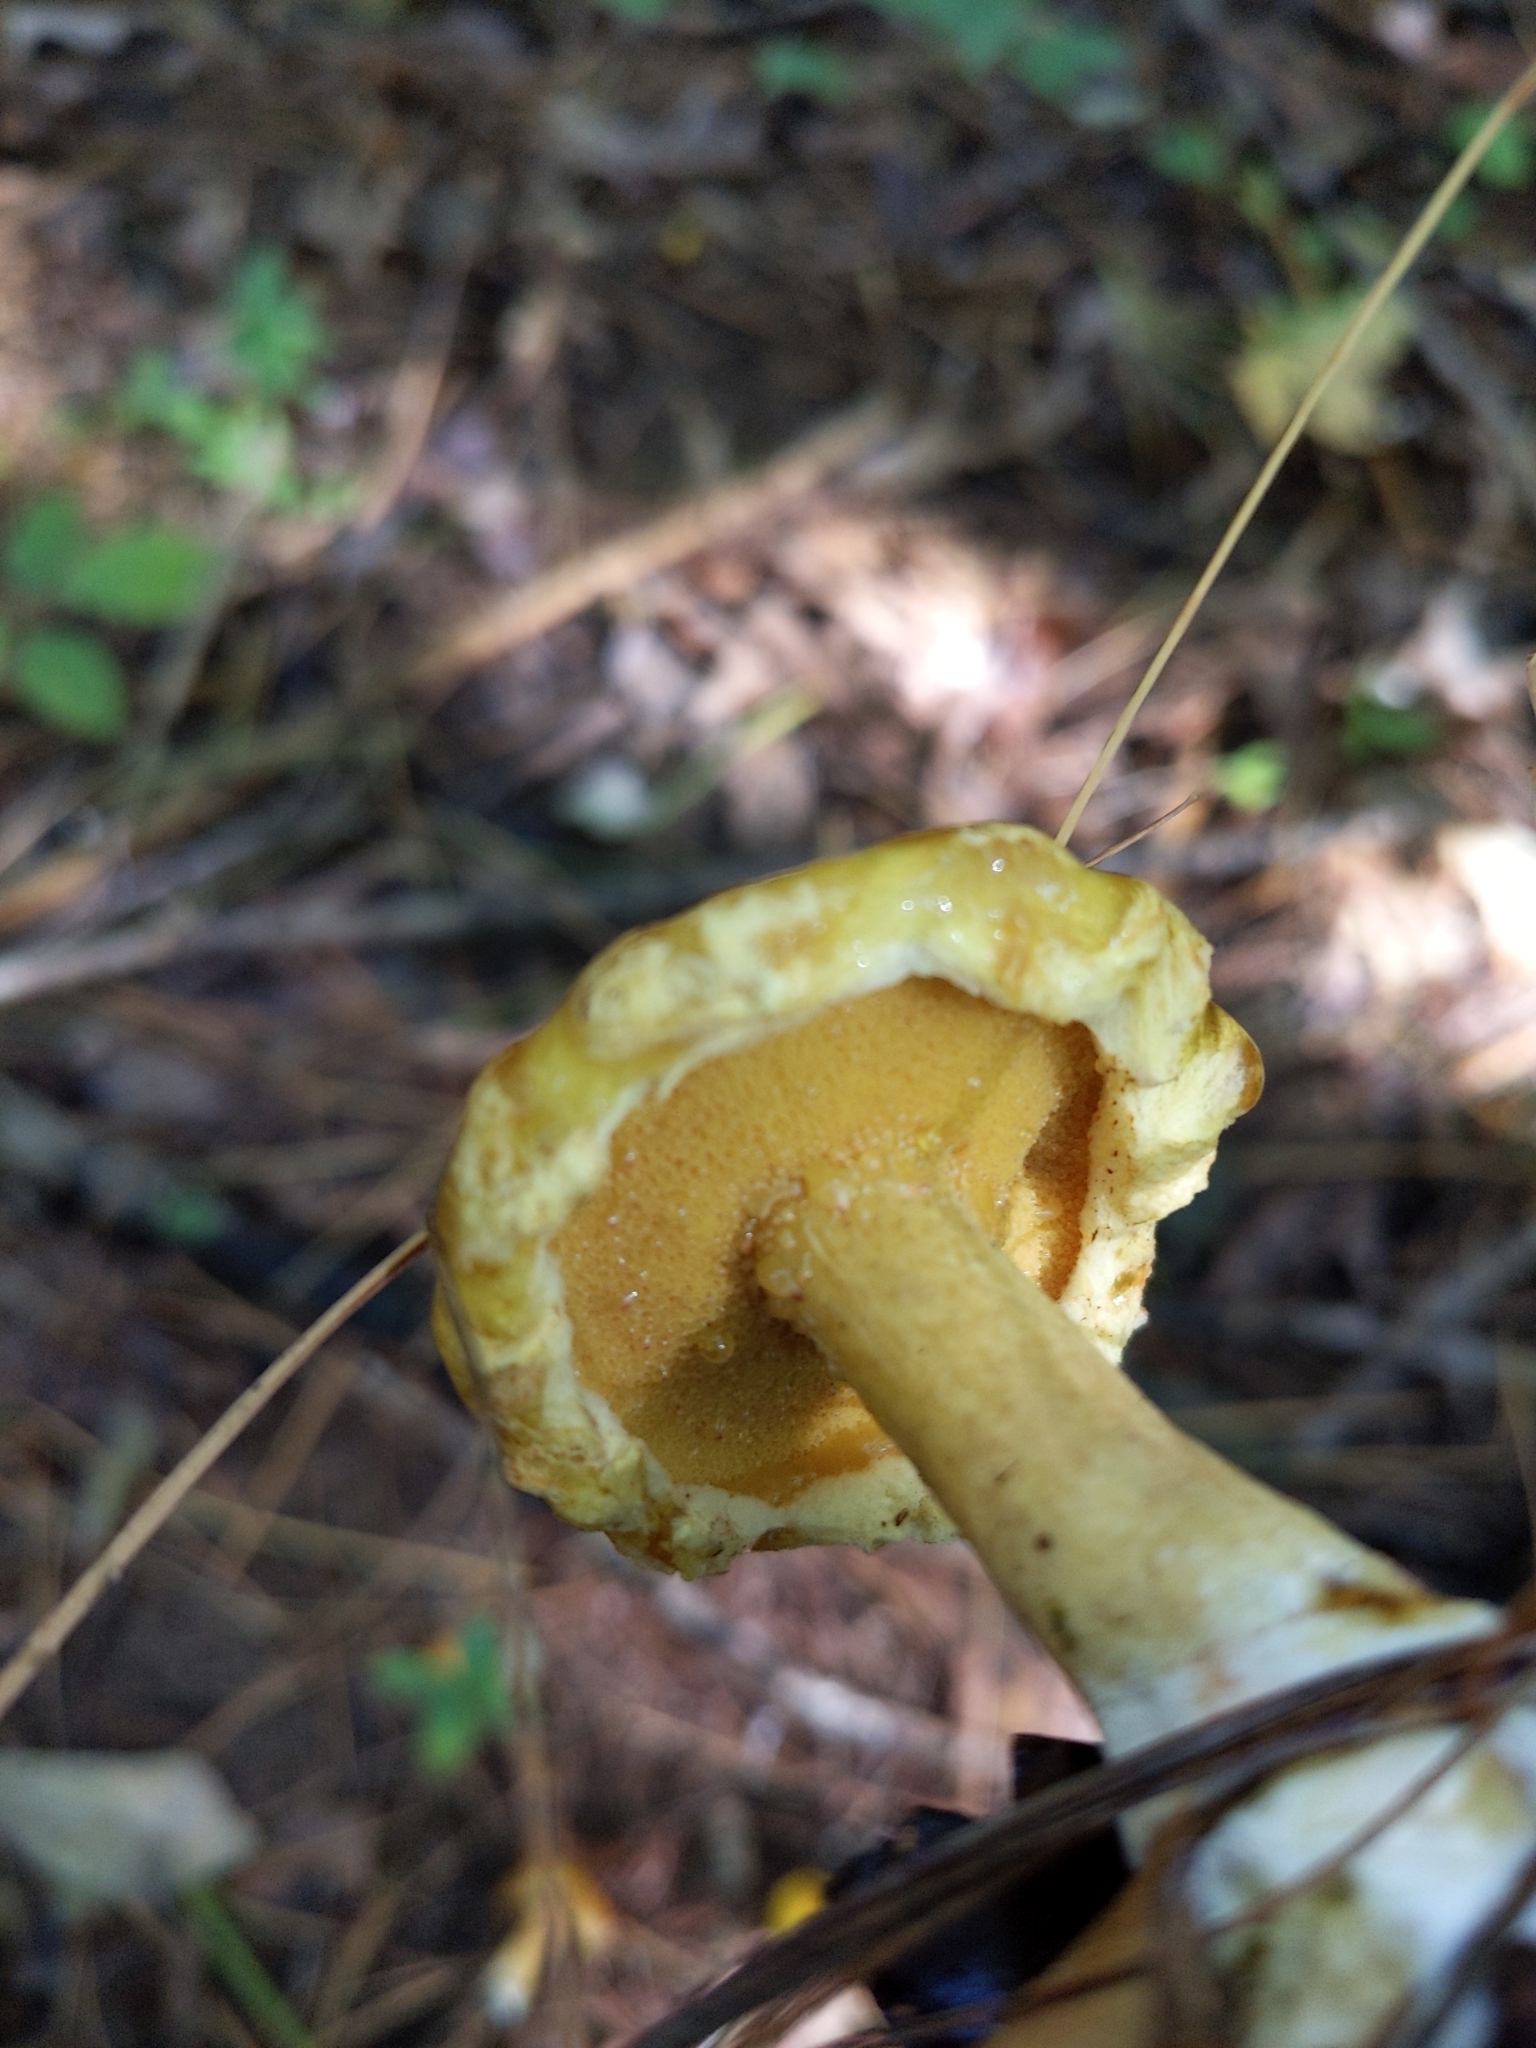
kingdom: Fungi
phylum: Basidiomycota
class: Agaricomycetes
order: Boletales
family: Suillaceae
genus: Suillus
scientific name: Suillus americanus
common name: Chicken fat mushroom
